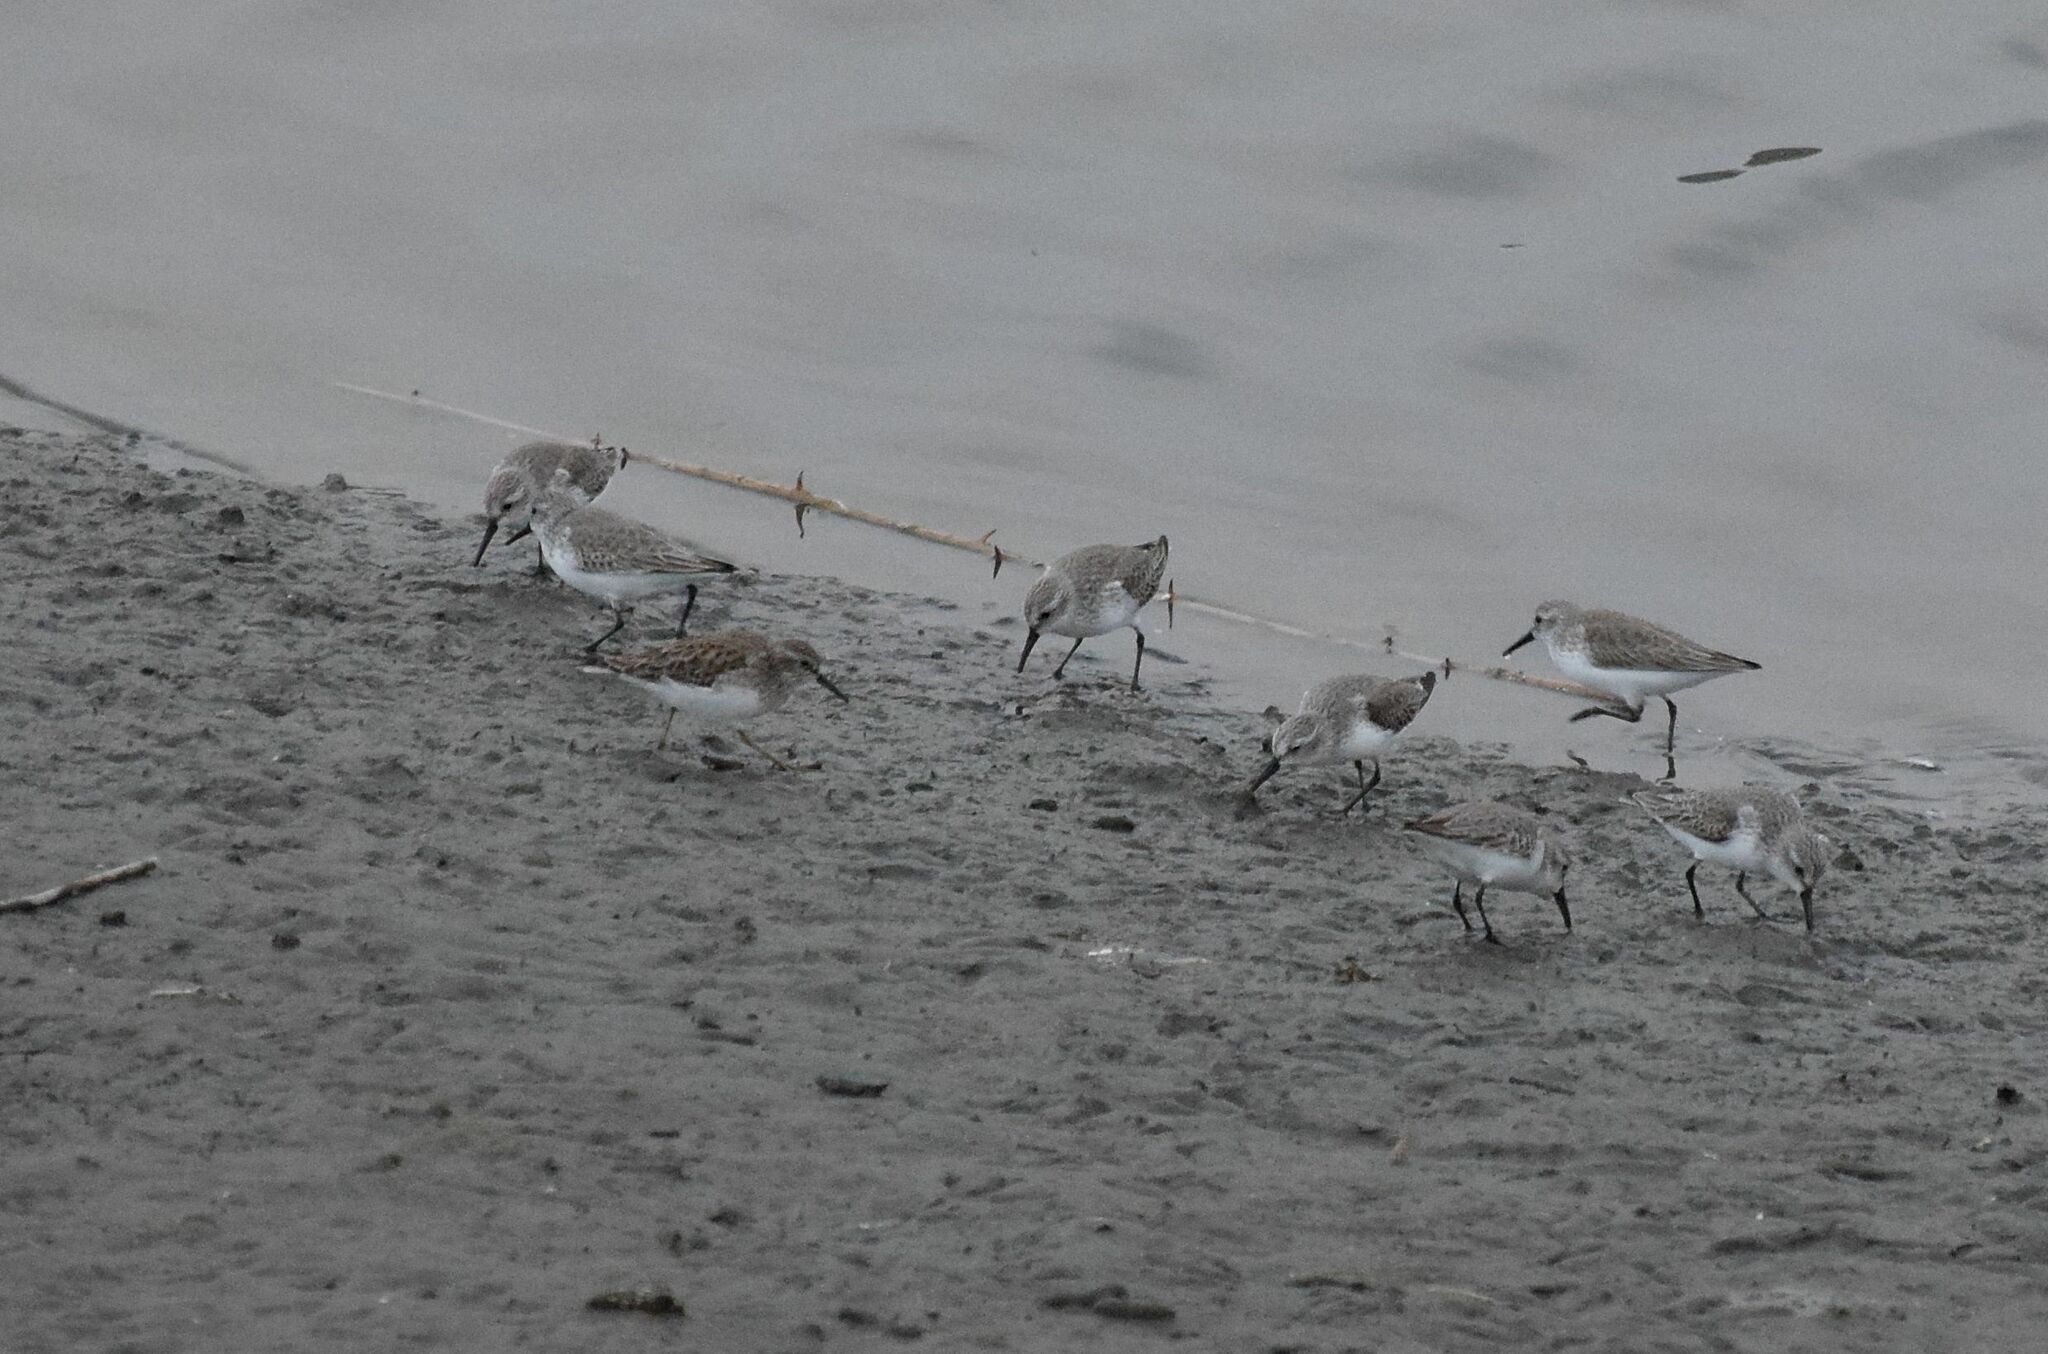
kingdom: Animalia
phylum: Chordata
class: Aves
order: Charadriiformes
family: Scolopacidae
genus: Calidris
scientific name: Calidris mauri
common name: Western sandpiper
